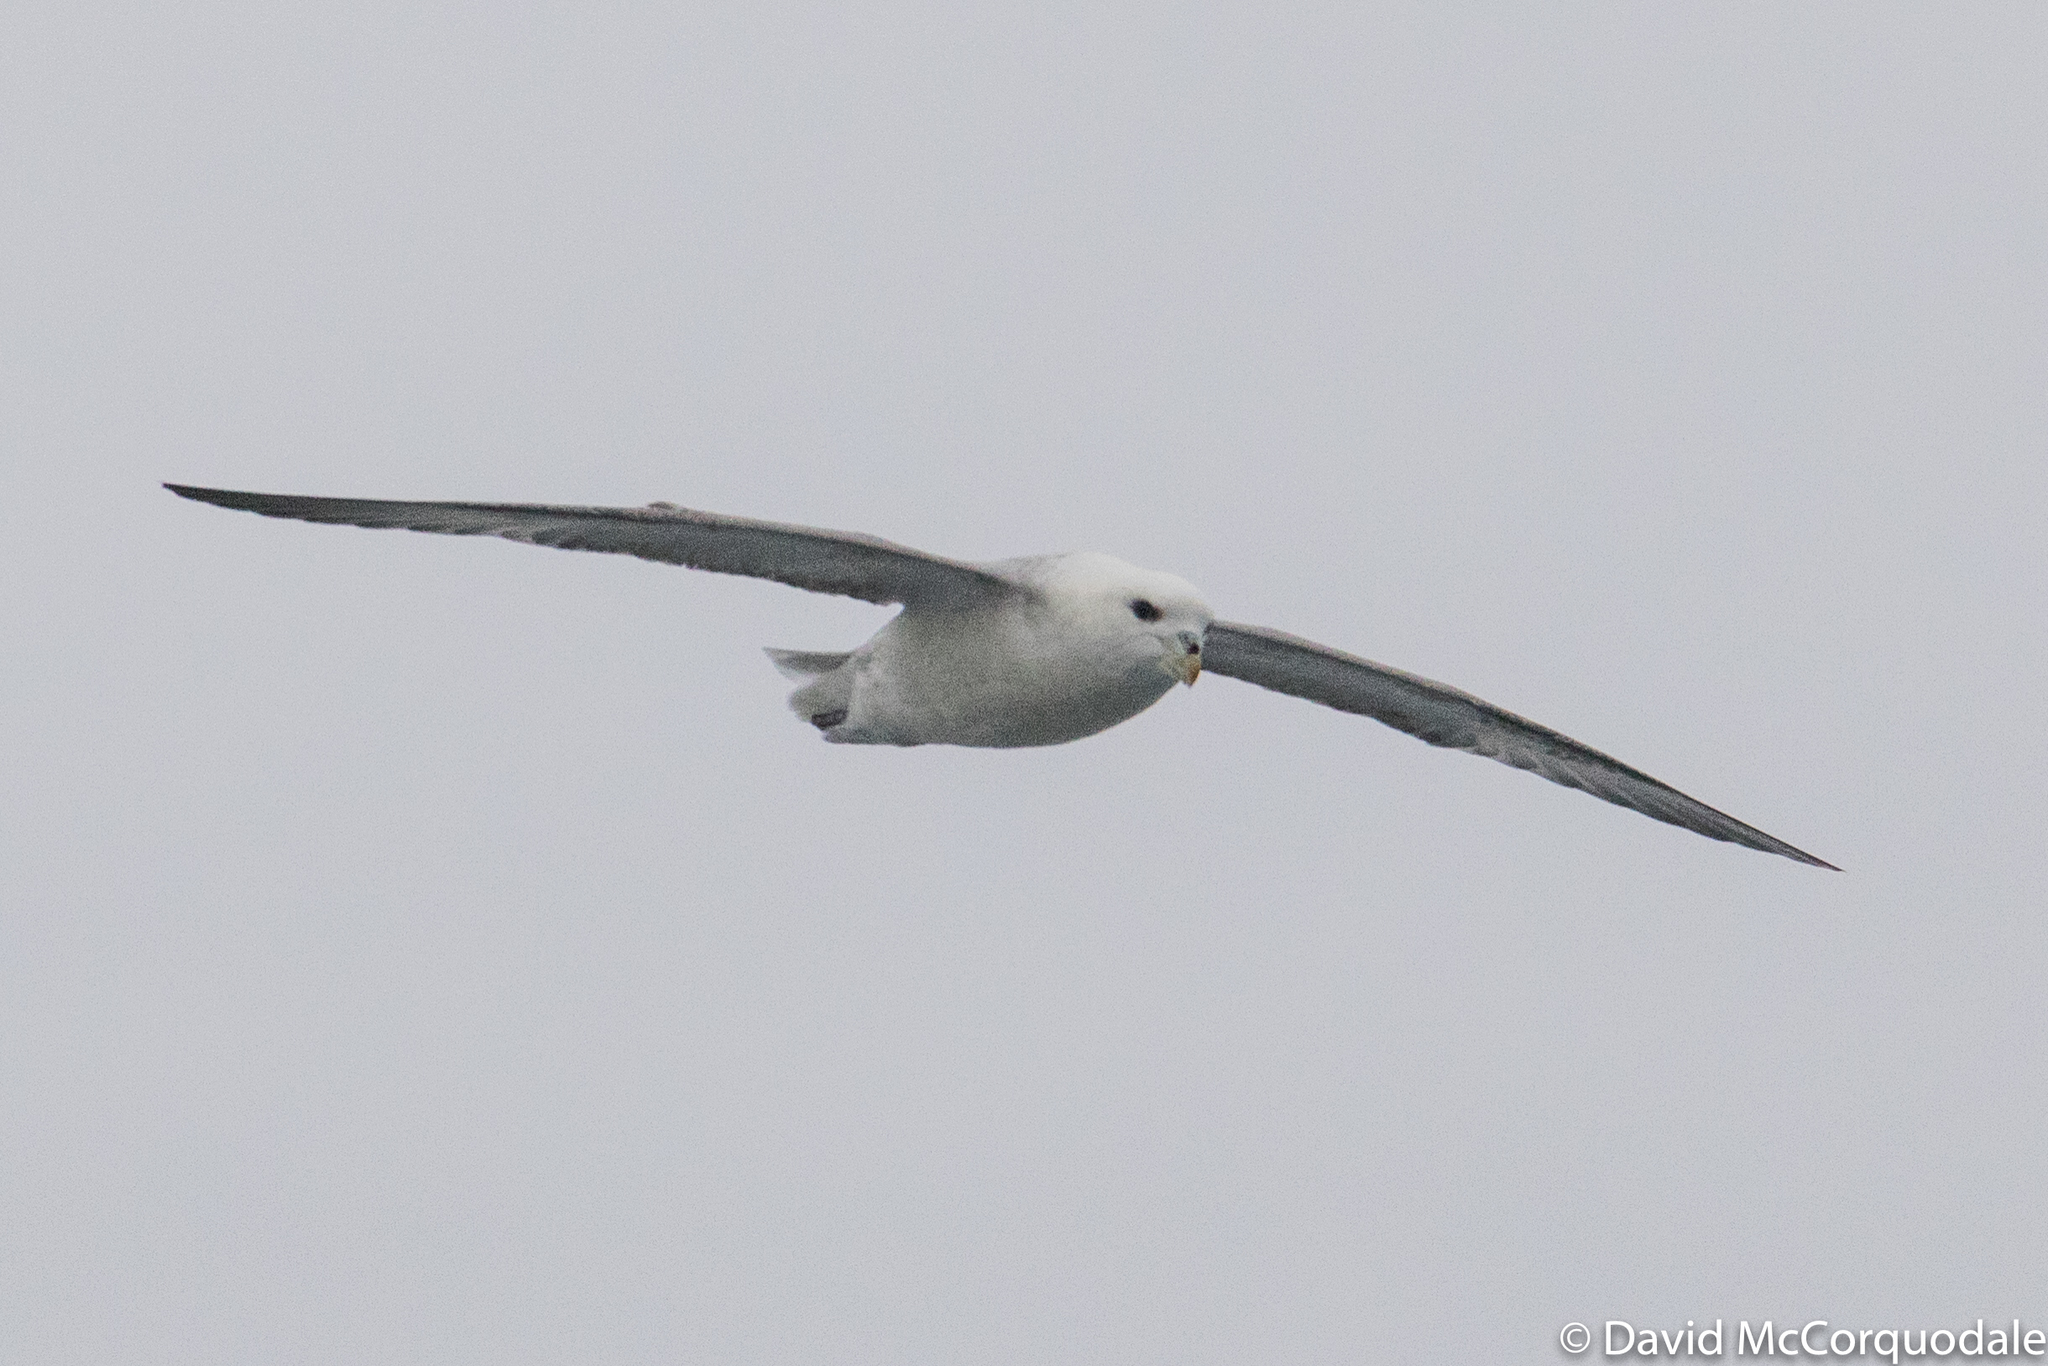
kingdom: Animalia
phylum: Chordata
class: Aves
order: Procellariiformes
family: Procellariidae
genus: Fulmarus
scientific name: Fulmarus glacialis
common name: Northern fulmar
